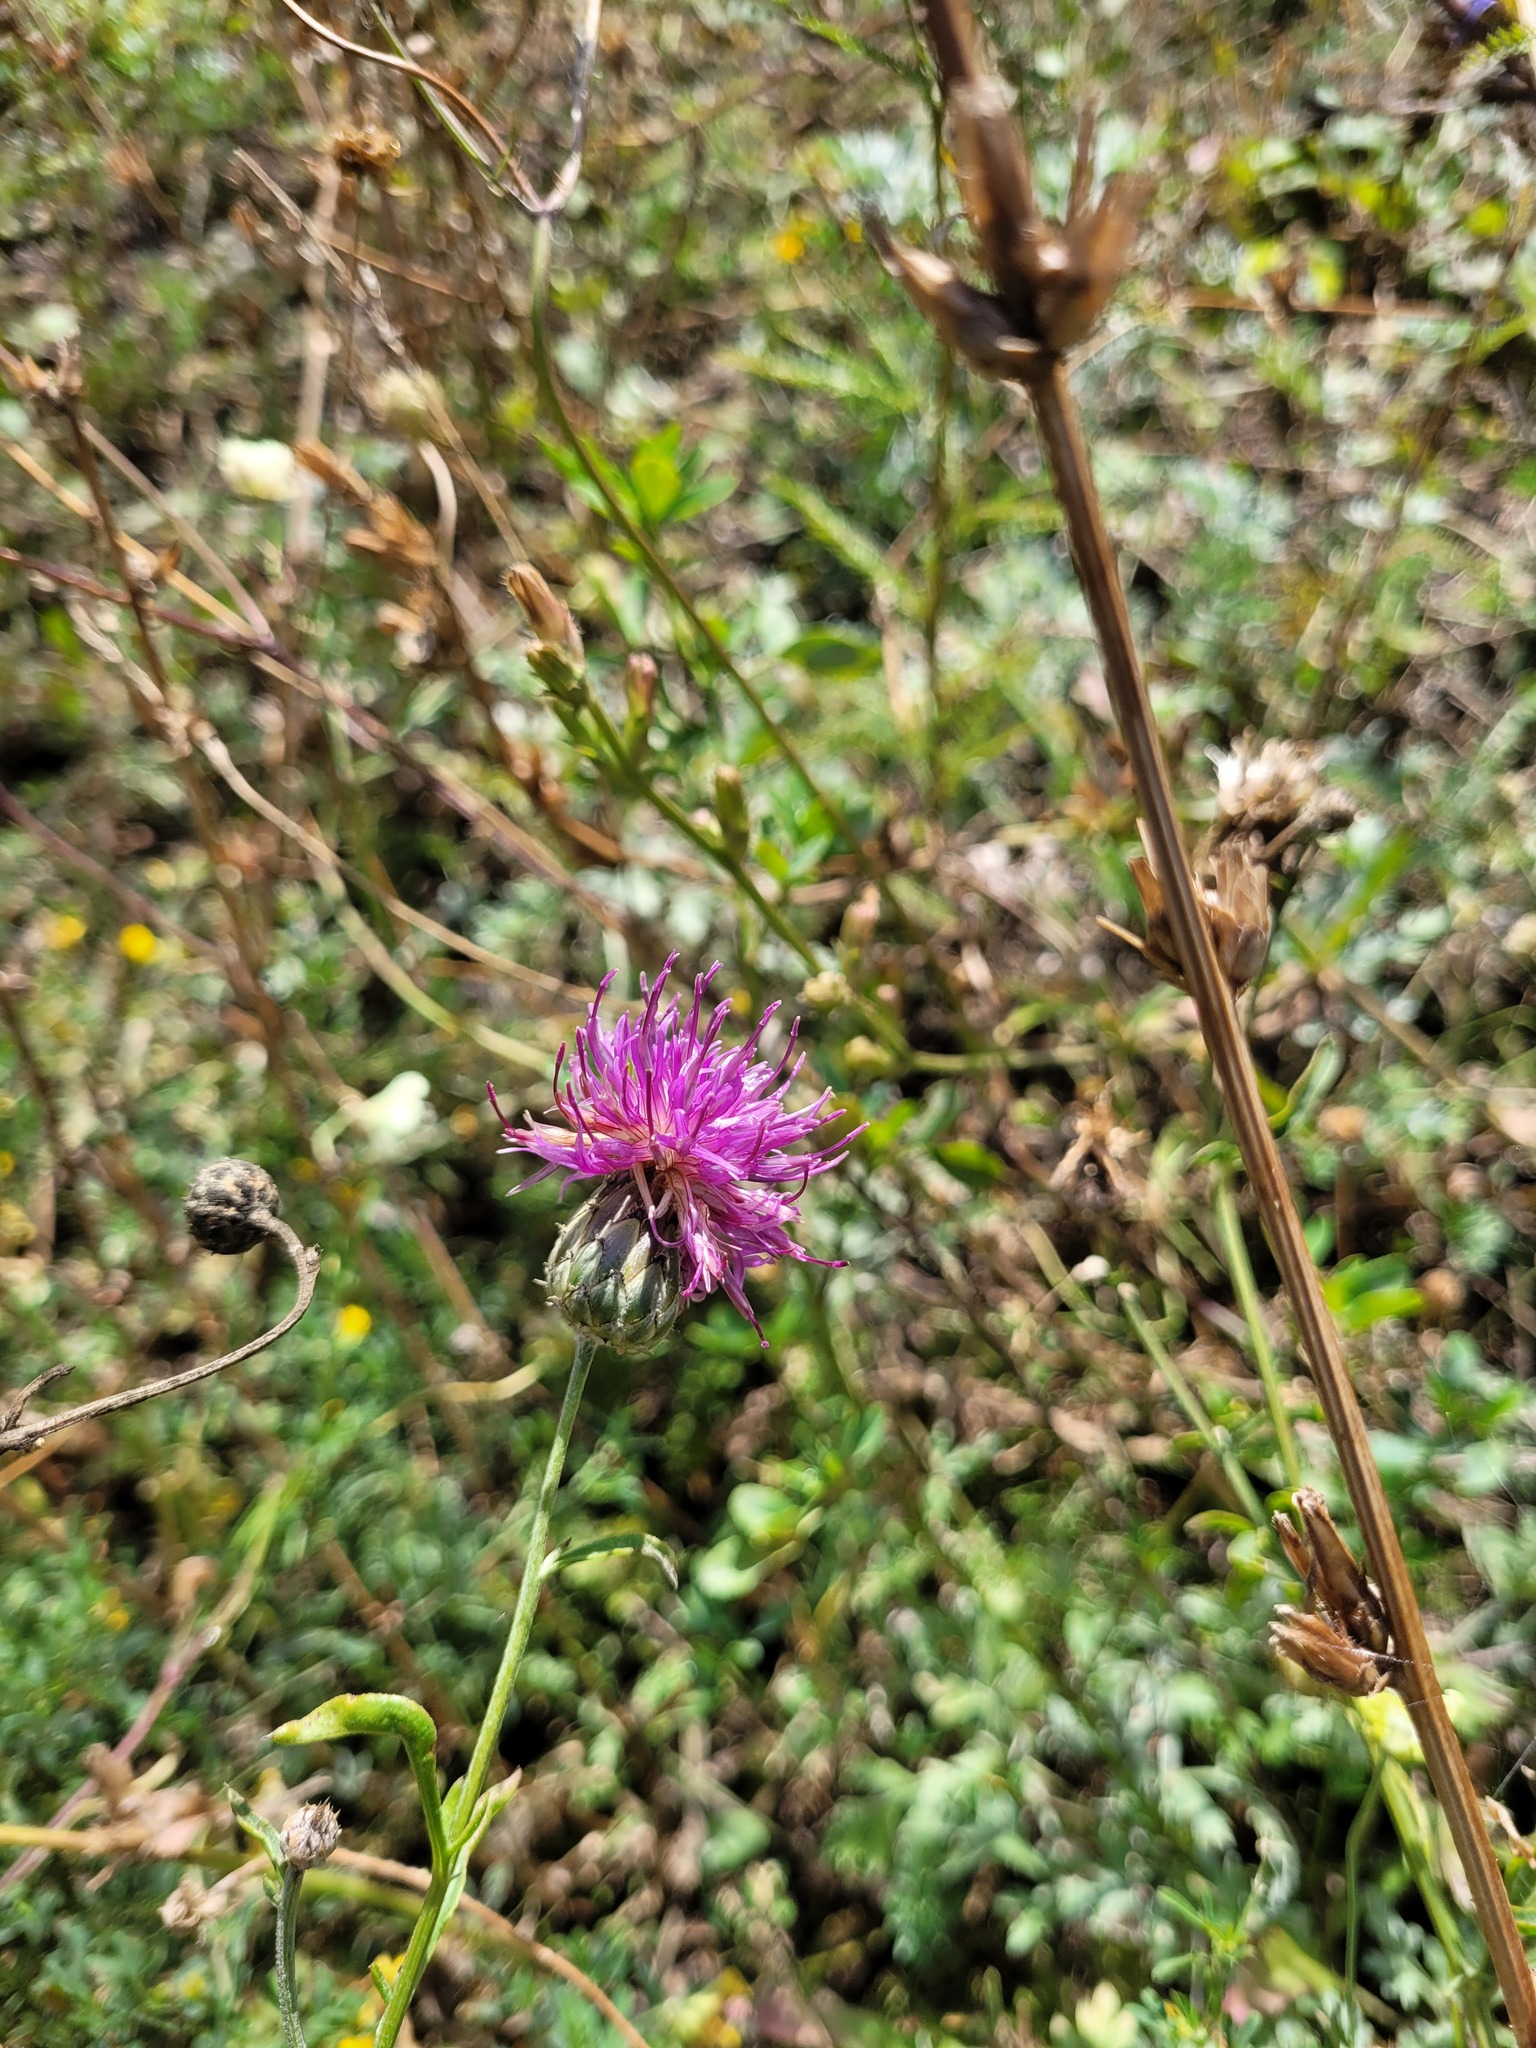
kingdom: Plantae
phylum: Tracheophyta
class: Magnoliopsida
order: Asterales
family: Asteraceae
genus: Centaurea
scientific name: Centaurea apiculata
